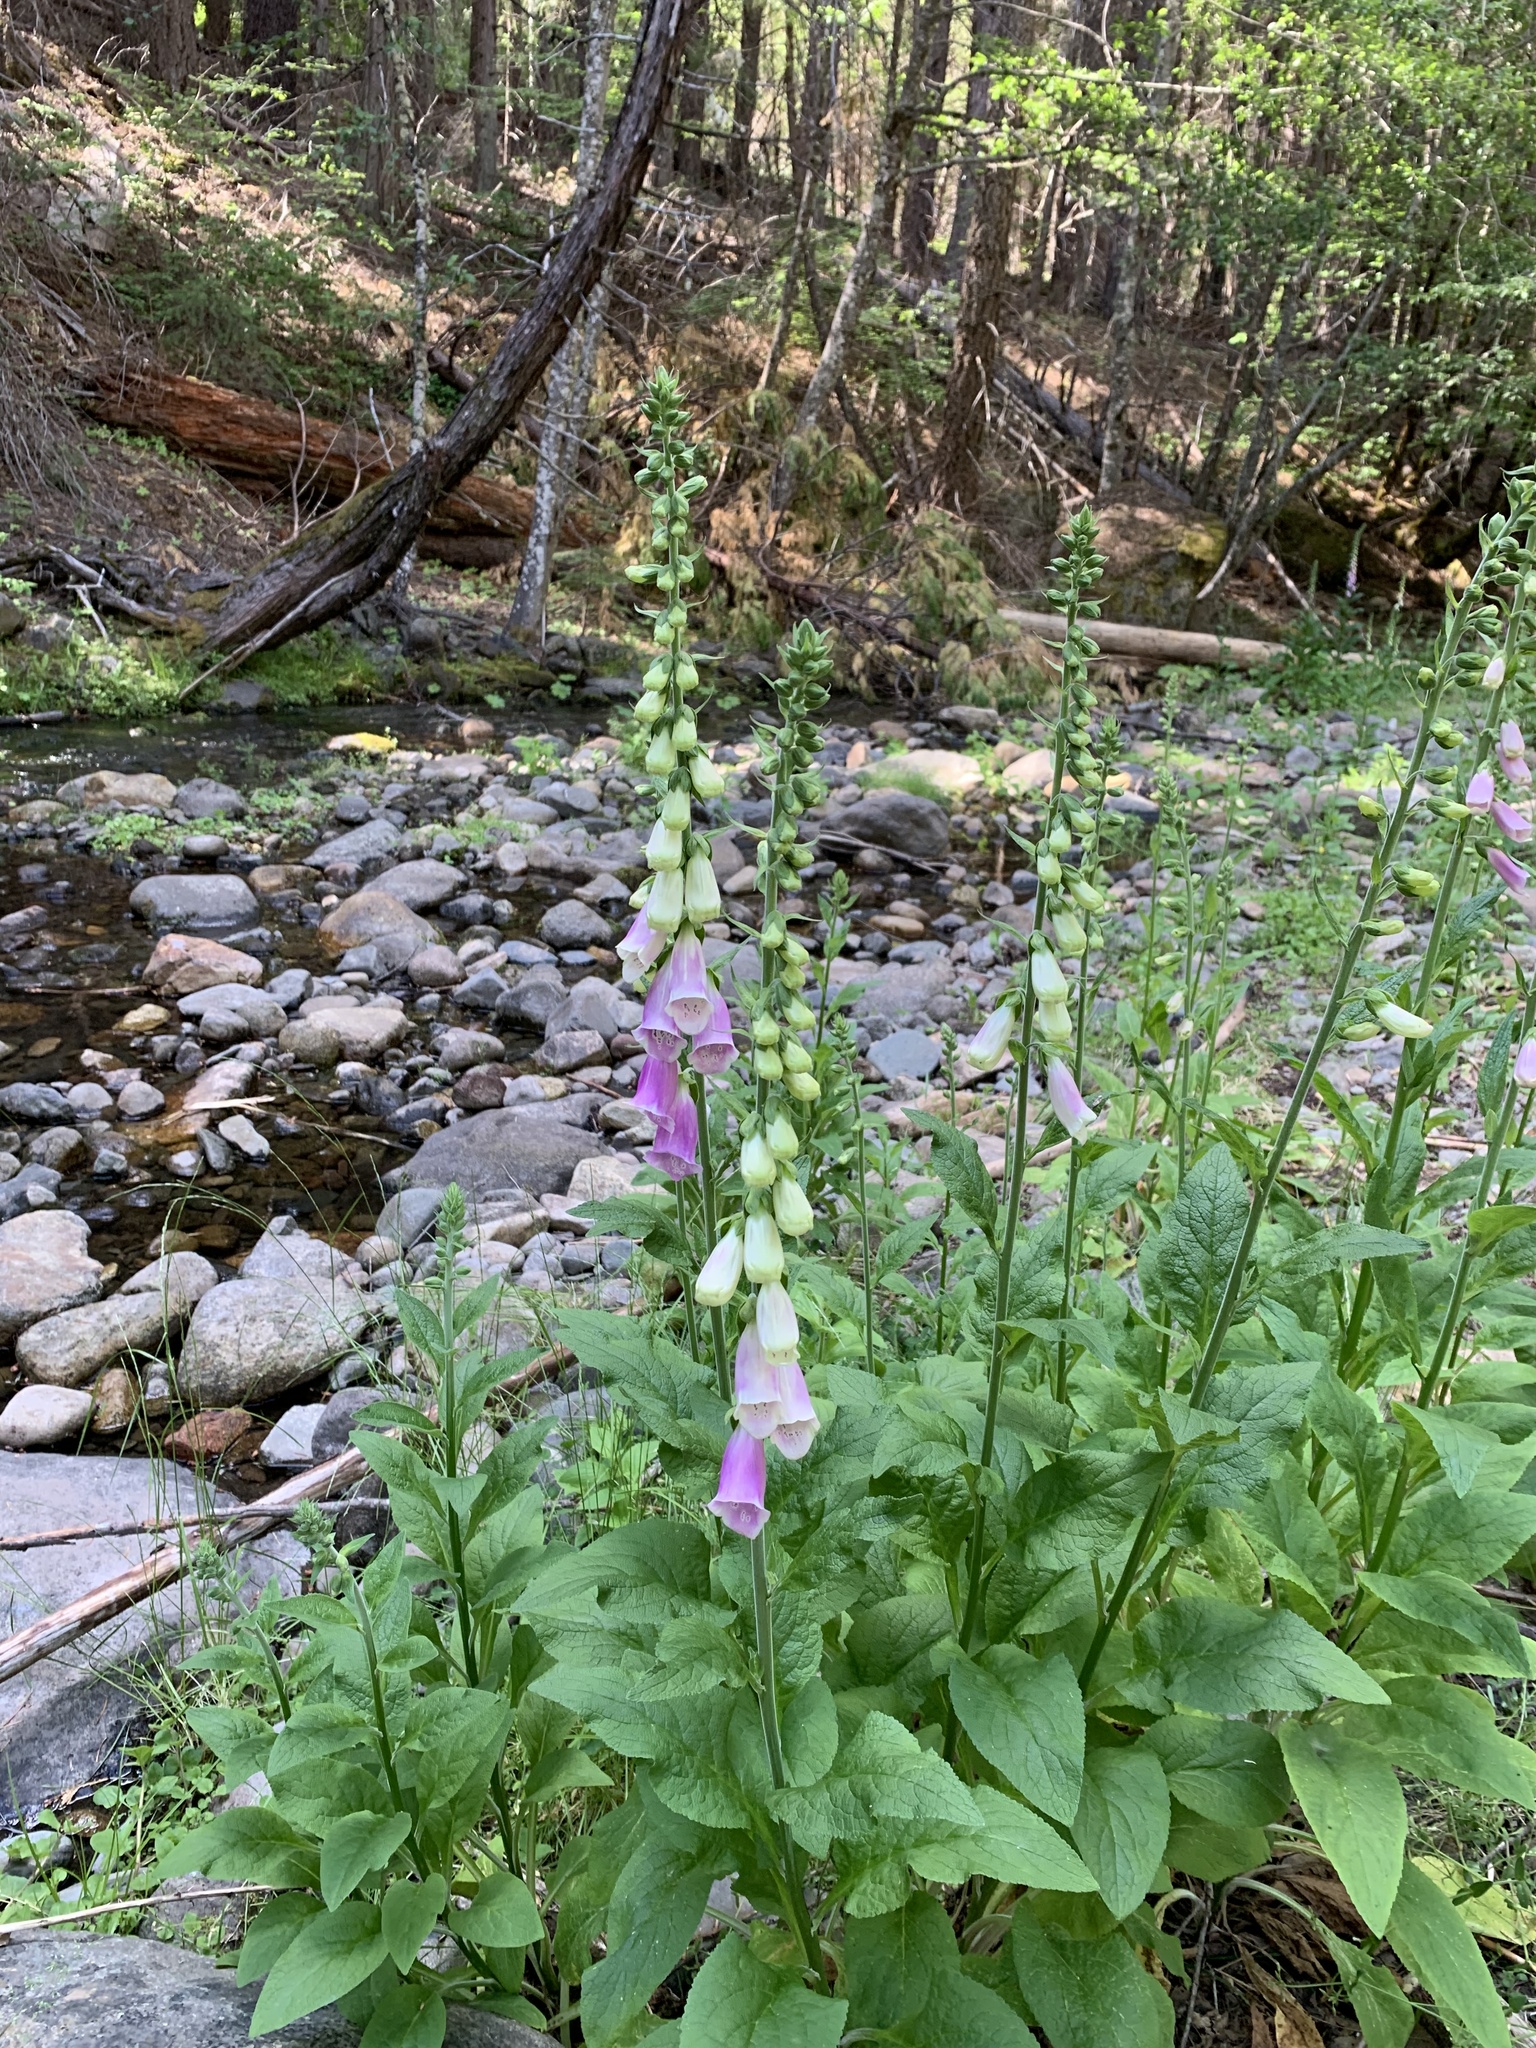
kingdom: Plantae
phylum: Tracheophyta
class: Magnoliopsida
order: Lamiales
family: Plantaginaceae
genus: Digitalis
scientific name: Digitalis purpurea
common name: Foxglove
